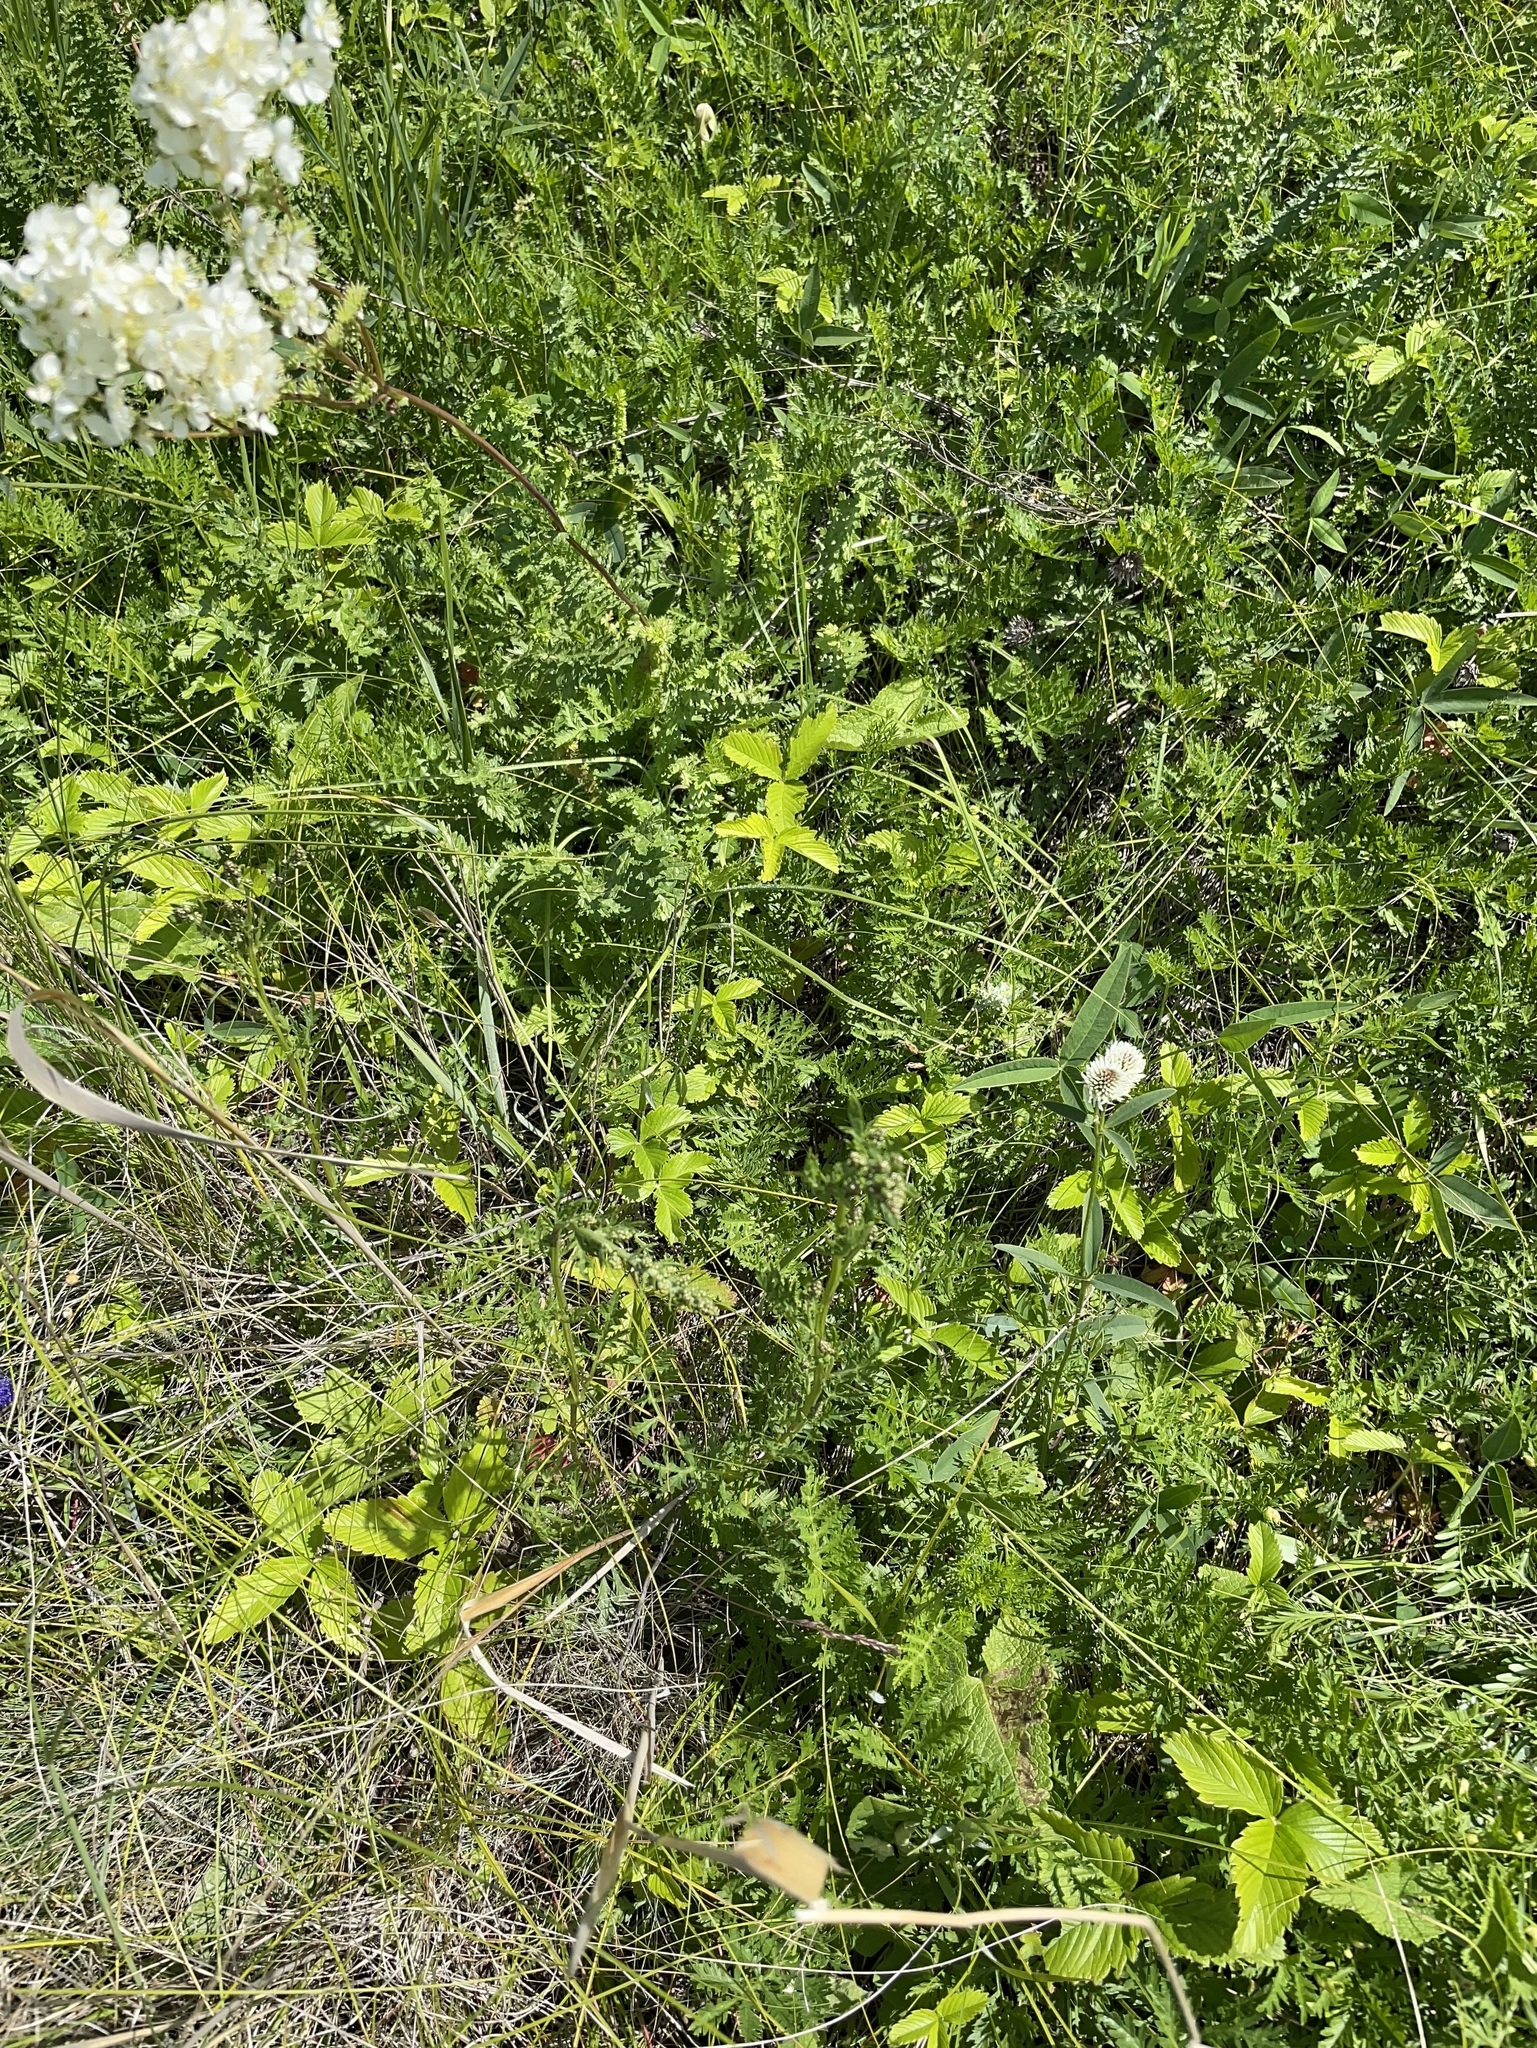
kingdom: Plantae
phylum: Tracheophyta
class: Magnoliopsida
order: Rosales
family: Rosaceae
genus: Filipendula
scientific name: Filipendula vulgaris
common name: Dropwort
